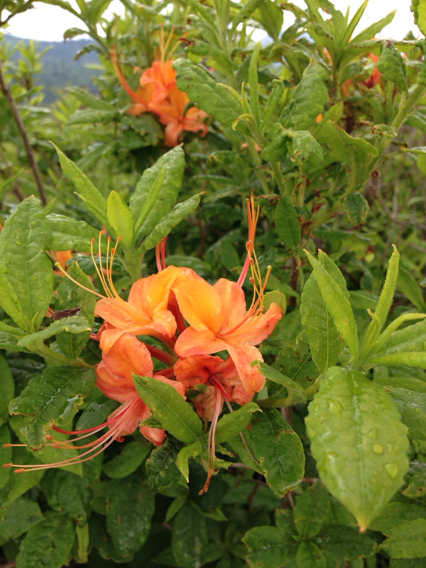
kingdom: Plantae
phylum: Tracheophyta
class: Magnoliopsida
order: Ericales
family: Ericaceae
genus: Rhododendron
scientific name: Rhododendron cumberlandense
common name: Diploid flame azalea
